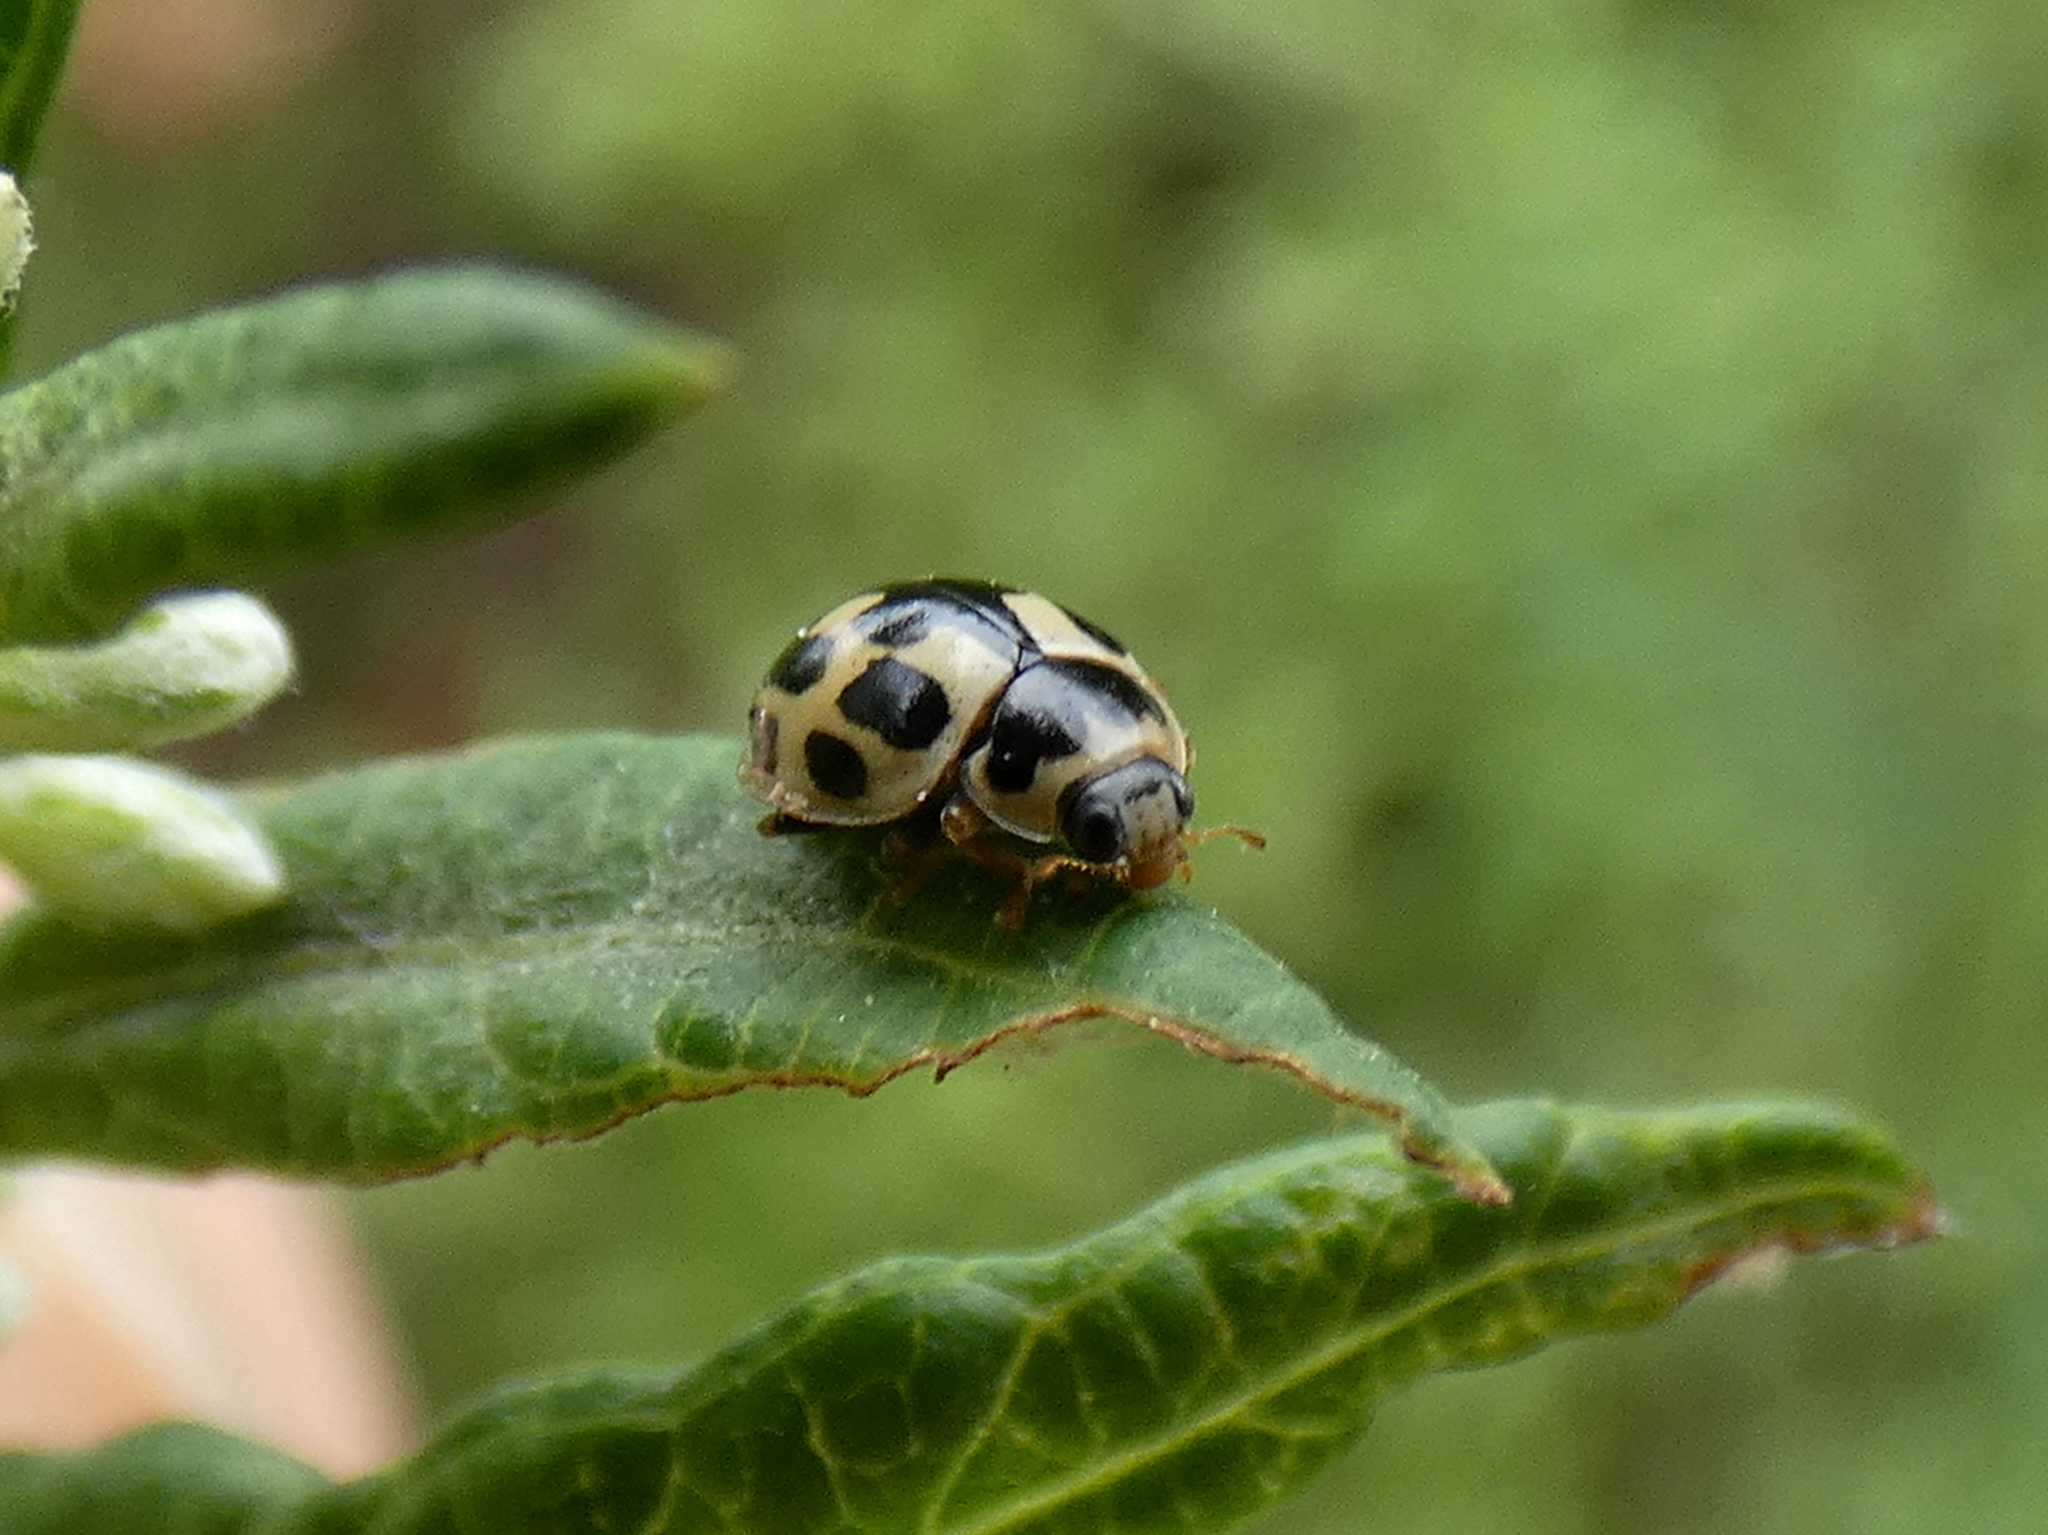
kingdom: Animalia
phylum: Arthropoda
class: Insecta
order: Coleoptera
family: Coccinellidae
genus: Propylaea
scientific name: Propylaea quatuordecimpunctata
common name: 14-spotted ladybird beetle
